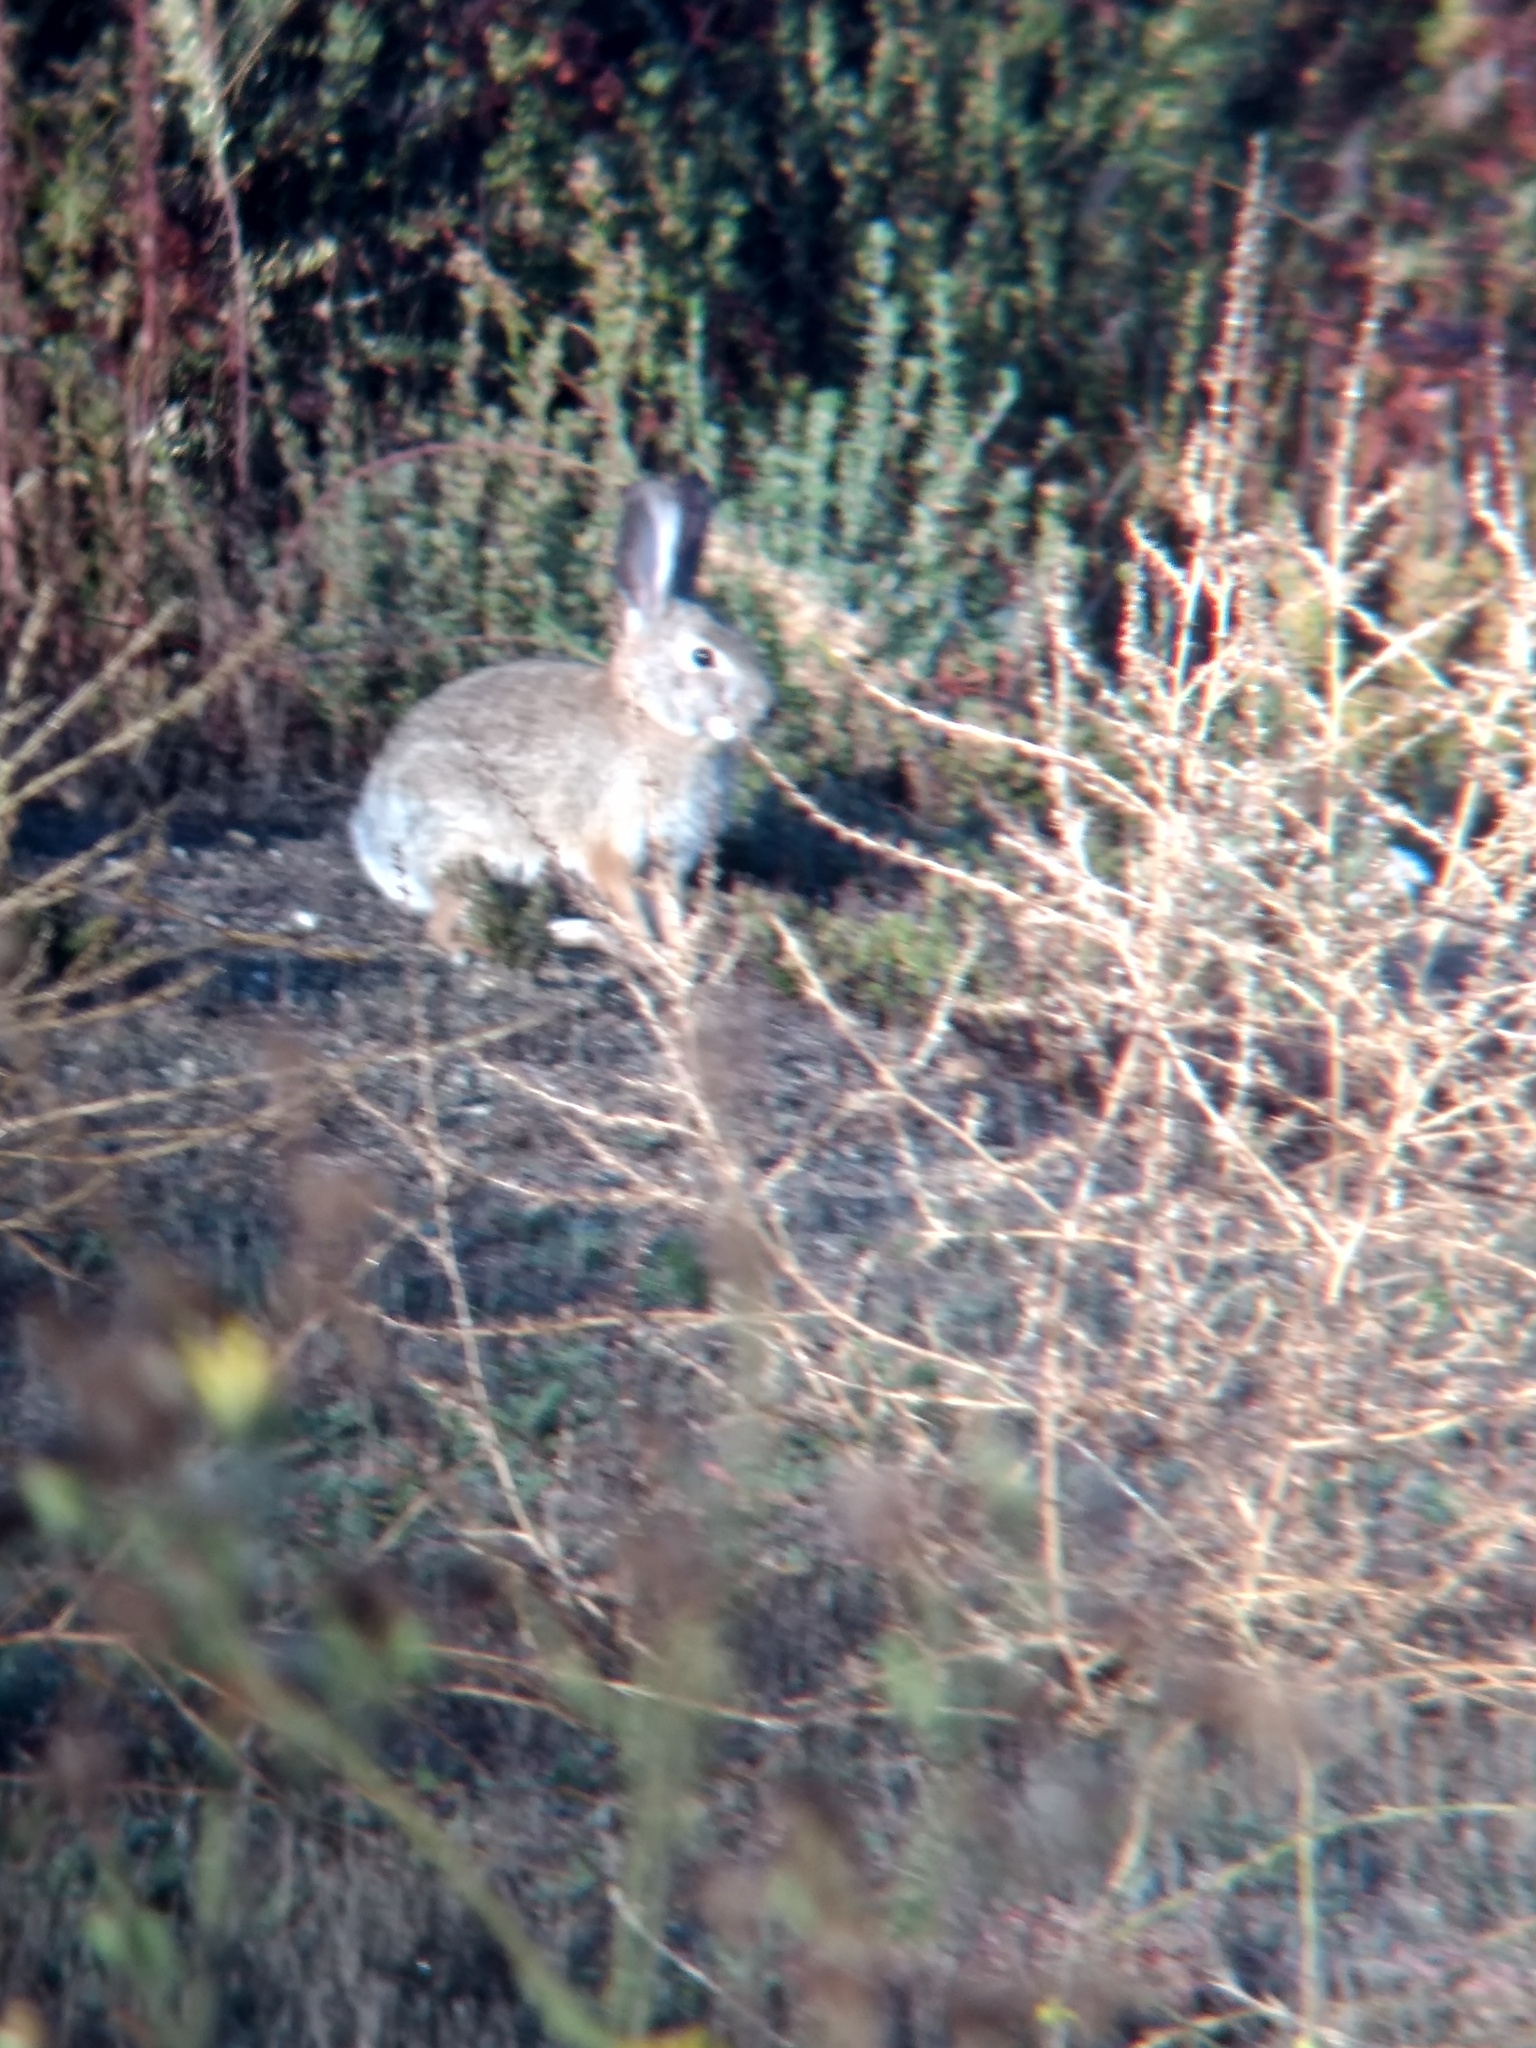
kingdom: Animalia
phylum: Chordata
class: Mammalia
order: Lagomorpha
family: Leporidae
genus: Sylvilagus
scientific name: Sylvilagus audubonii
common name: Desert cottontail
